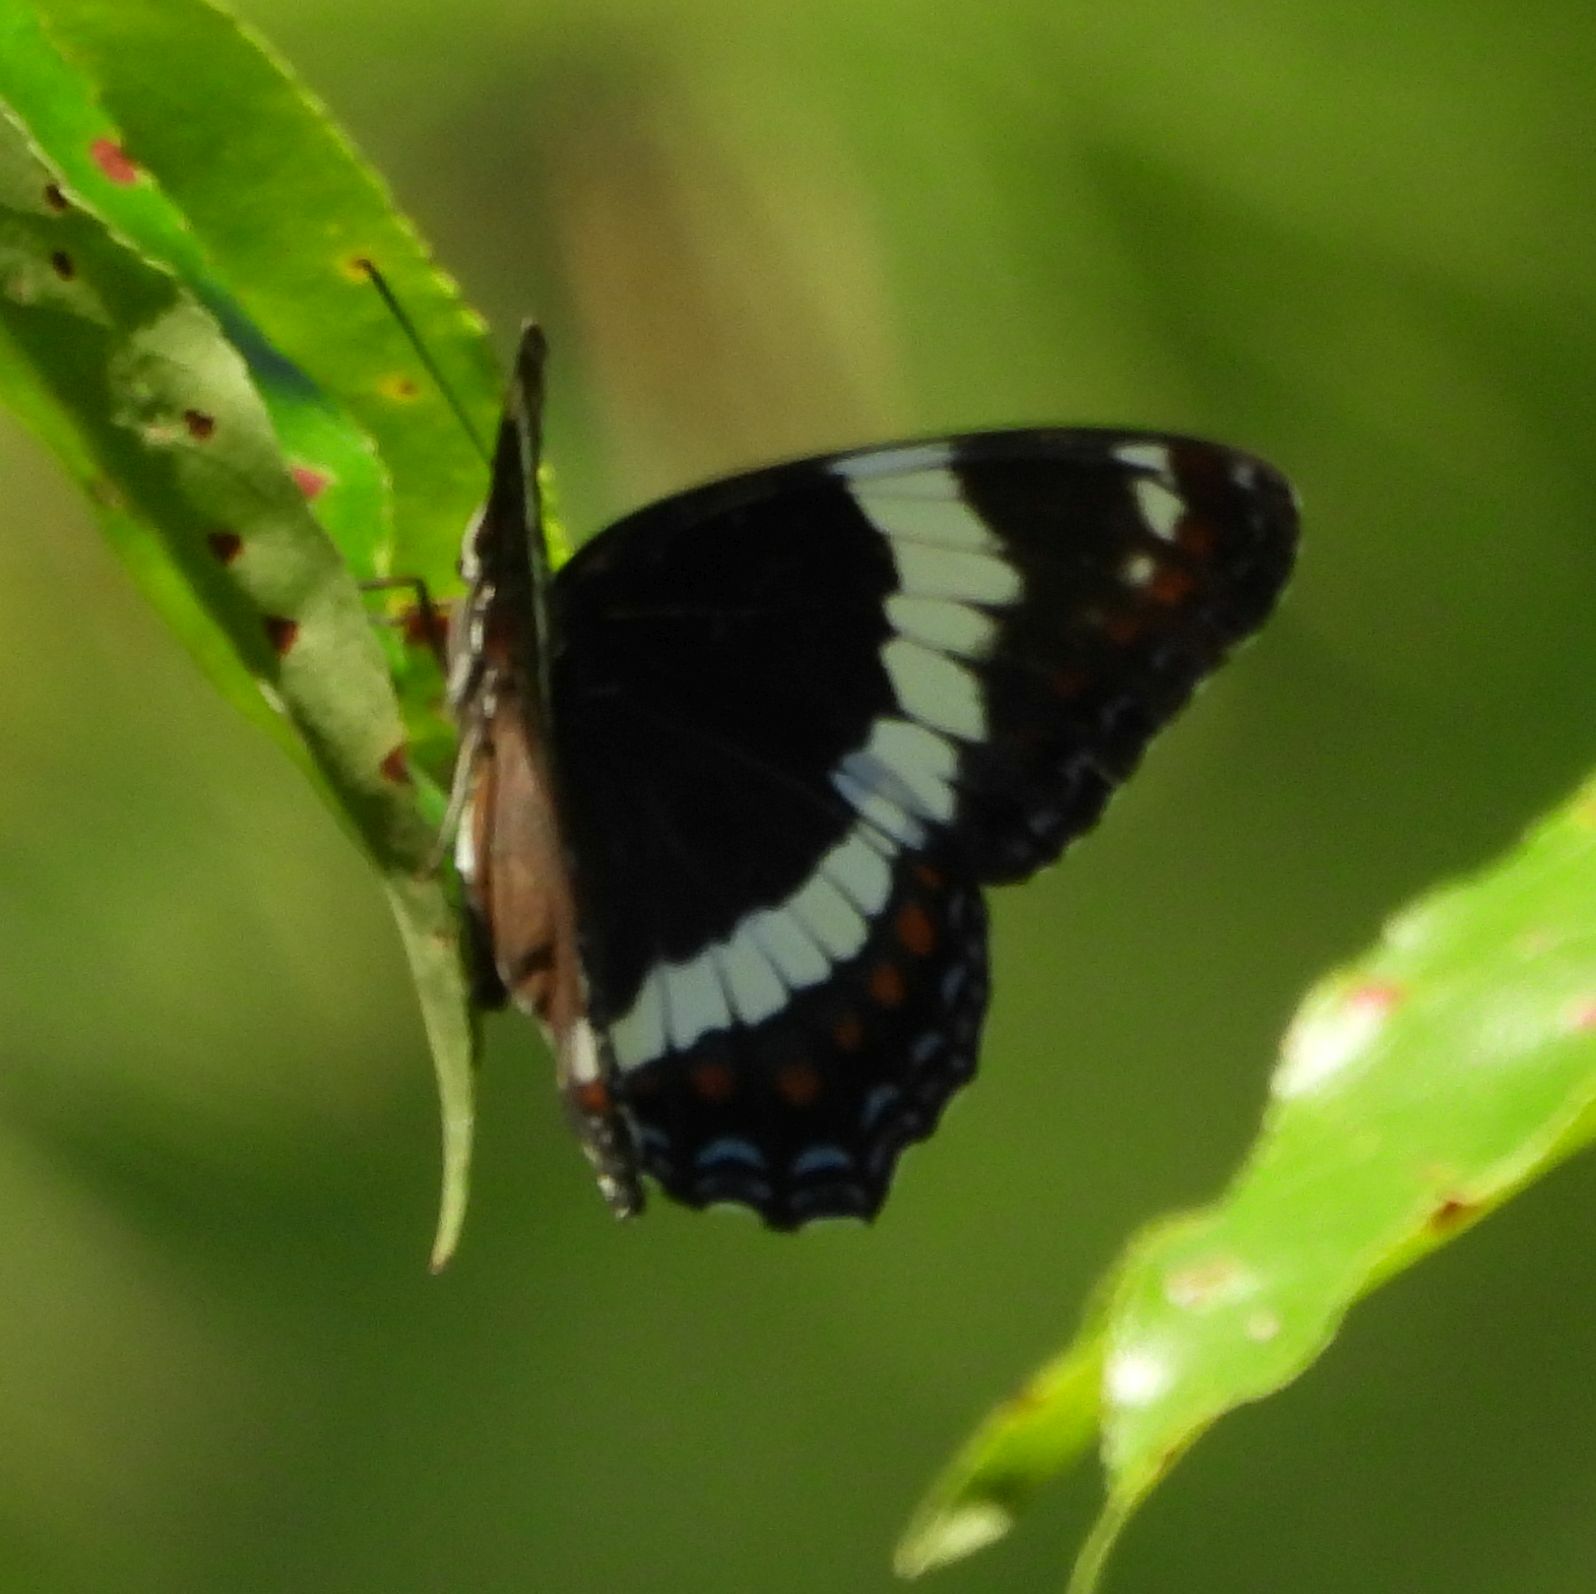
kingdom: Animalia
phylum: Arthropoda
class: Insecta
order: Lepidoptera
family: Nymphalidae
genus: Limenitis
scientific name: Limenitis arthemis
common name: Red-spotted admiral
